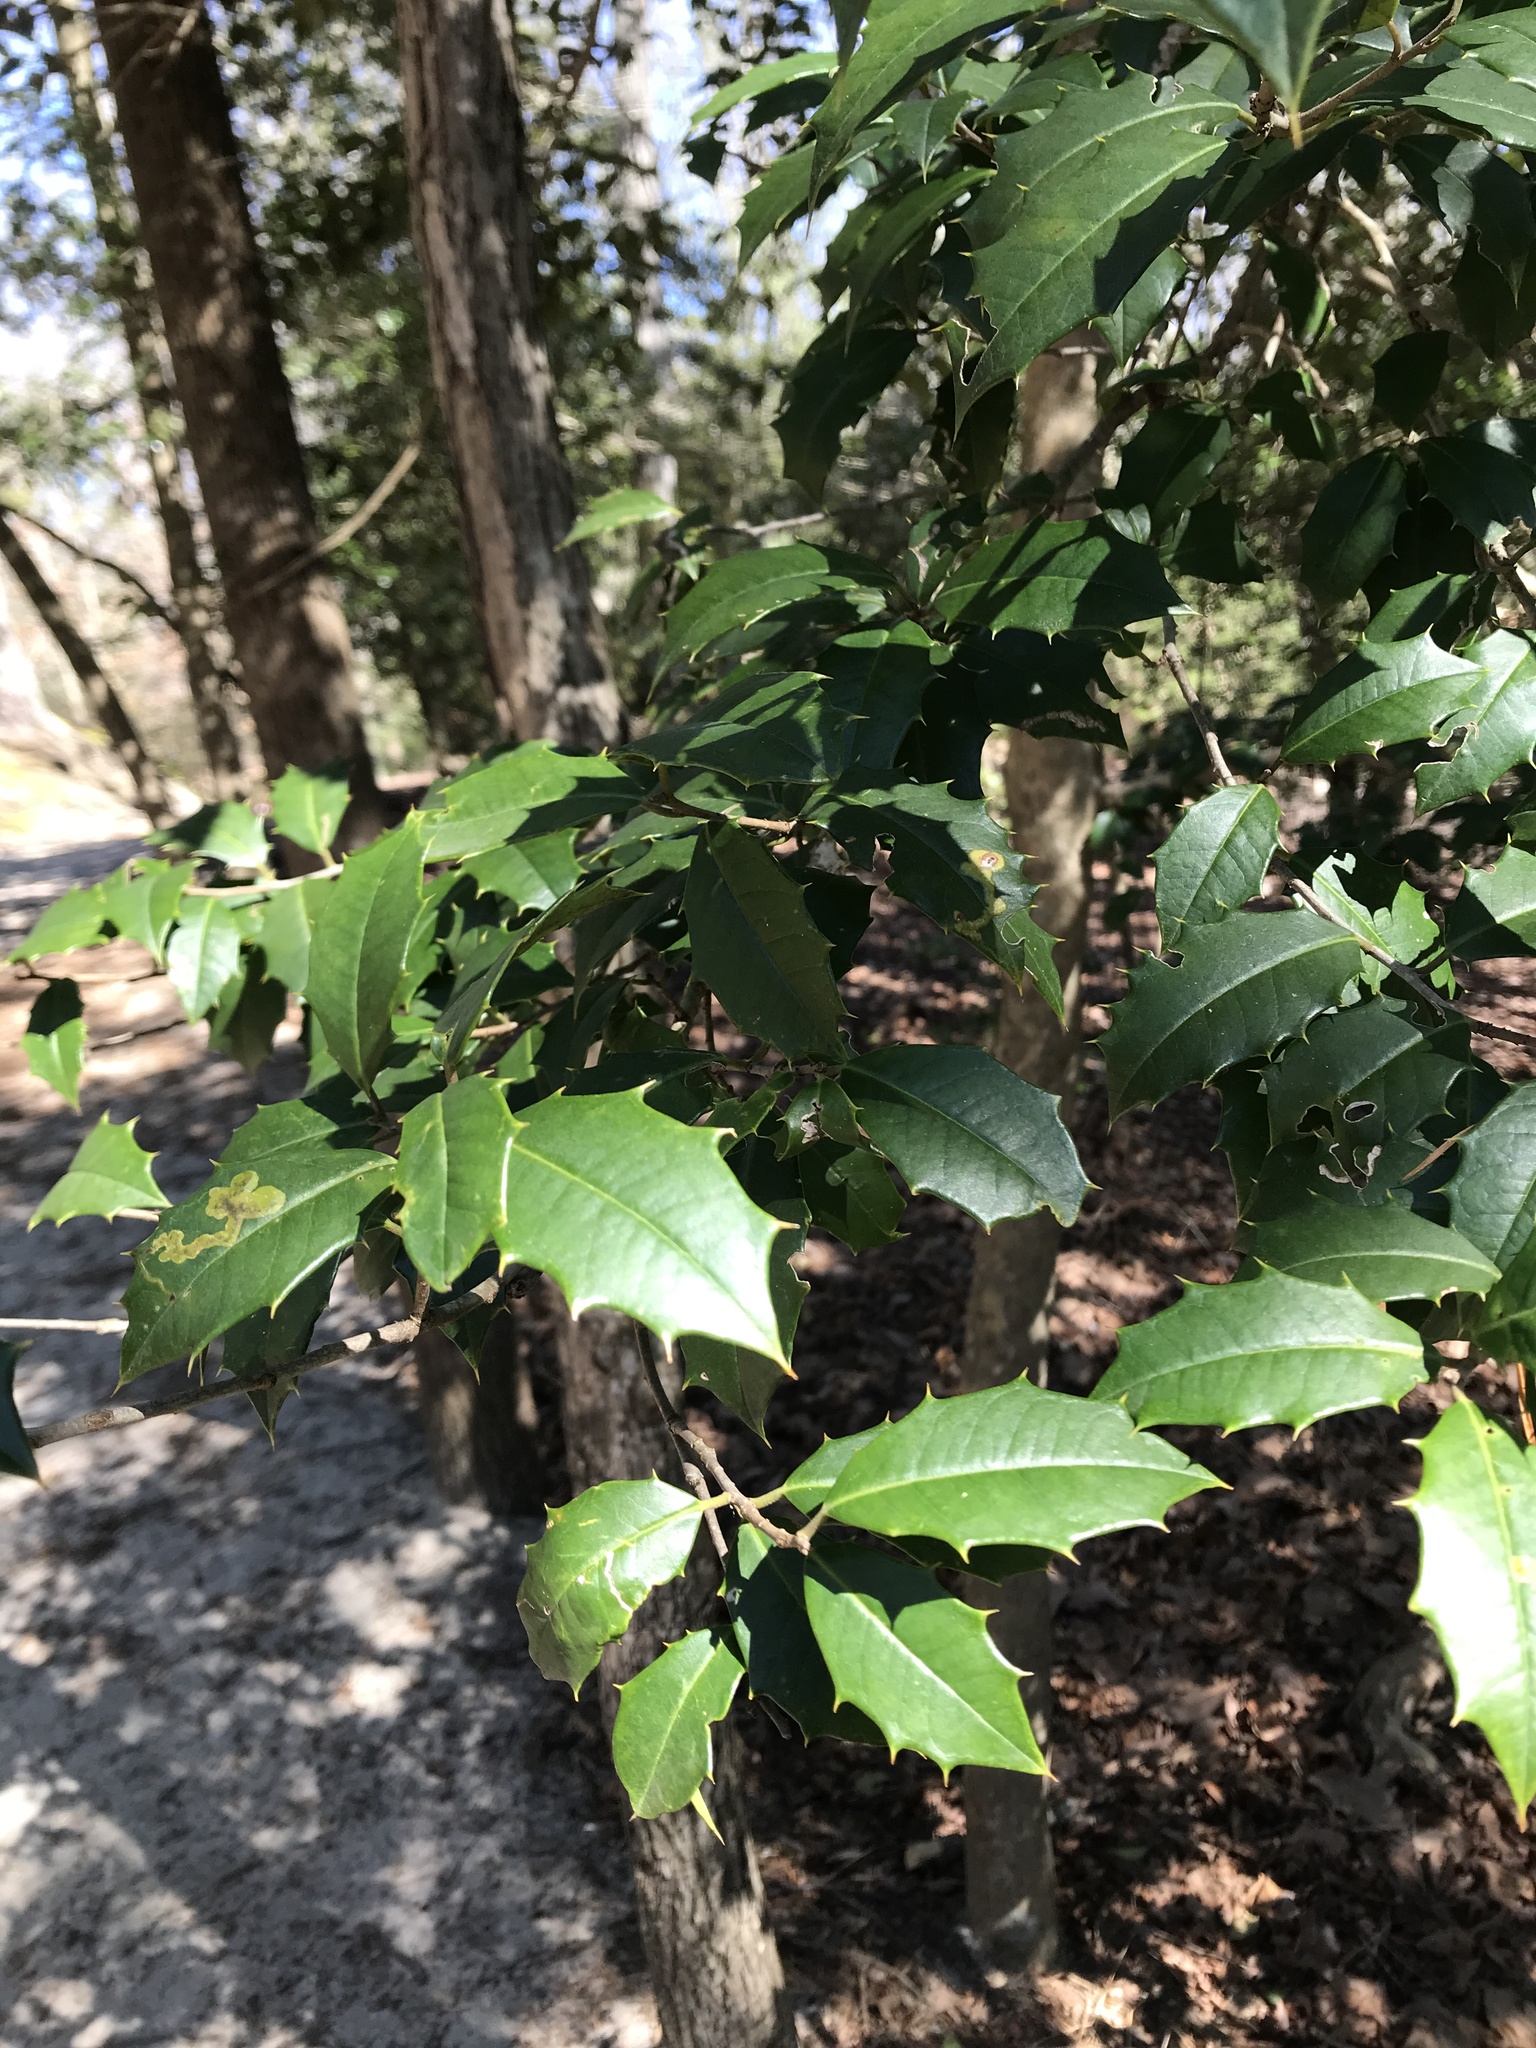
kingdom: Plantae
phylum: Tracheophyta
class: Magnoliopsida
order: Aquifoliales
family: Aquifoliaceae
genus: Ilex
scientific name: Ilex opaca
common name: American holly
